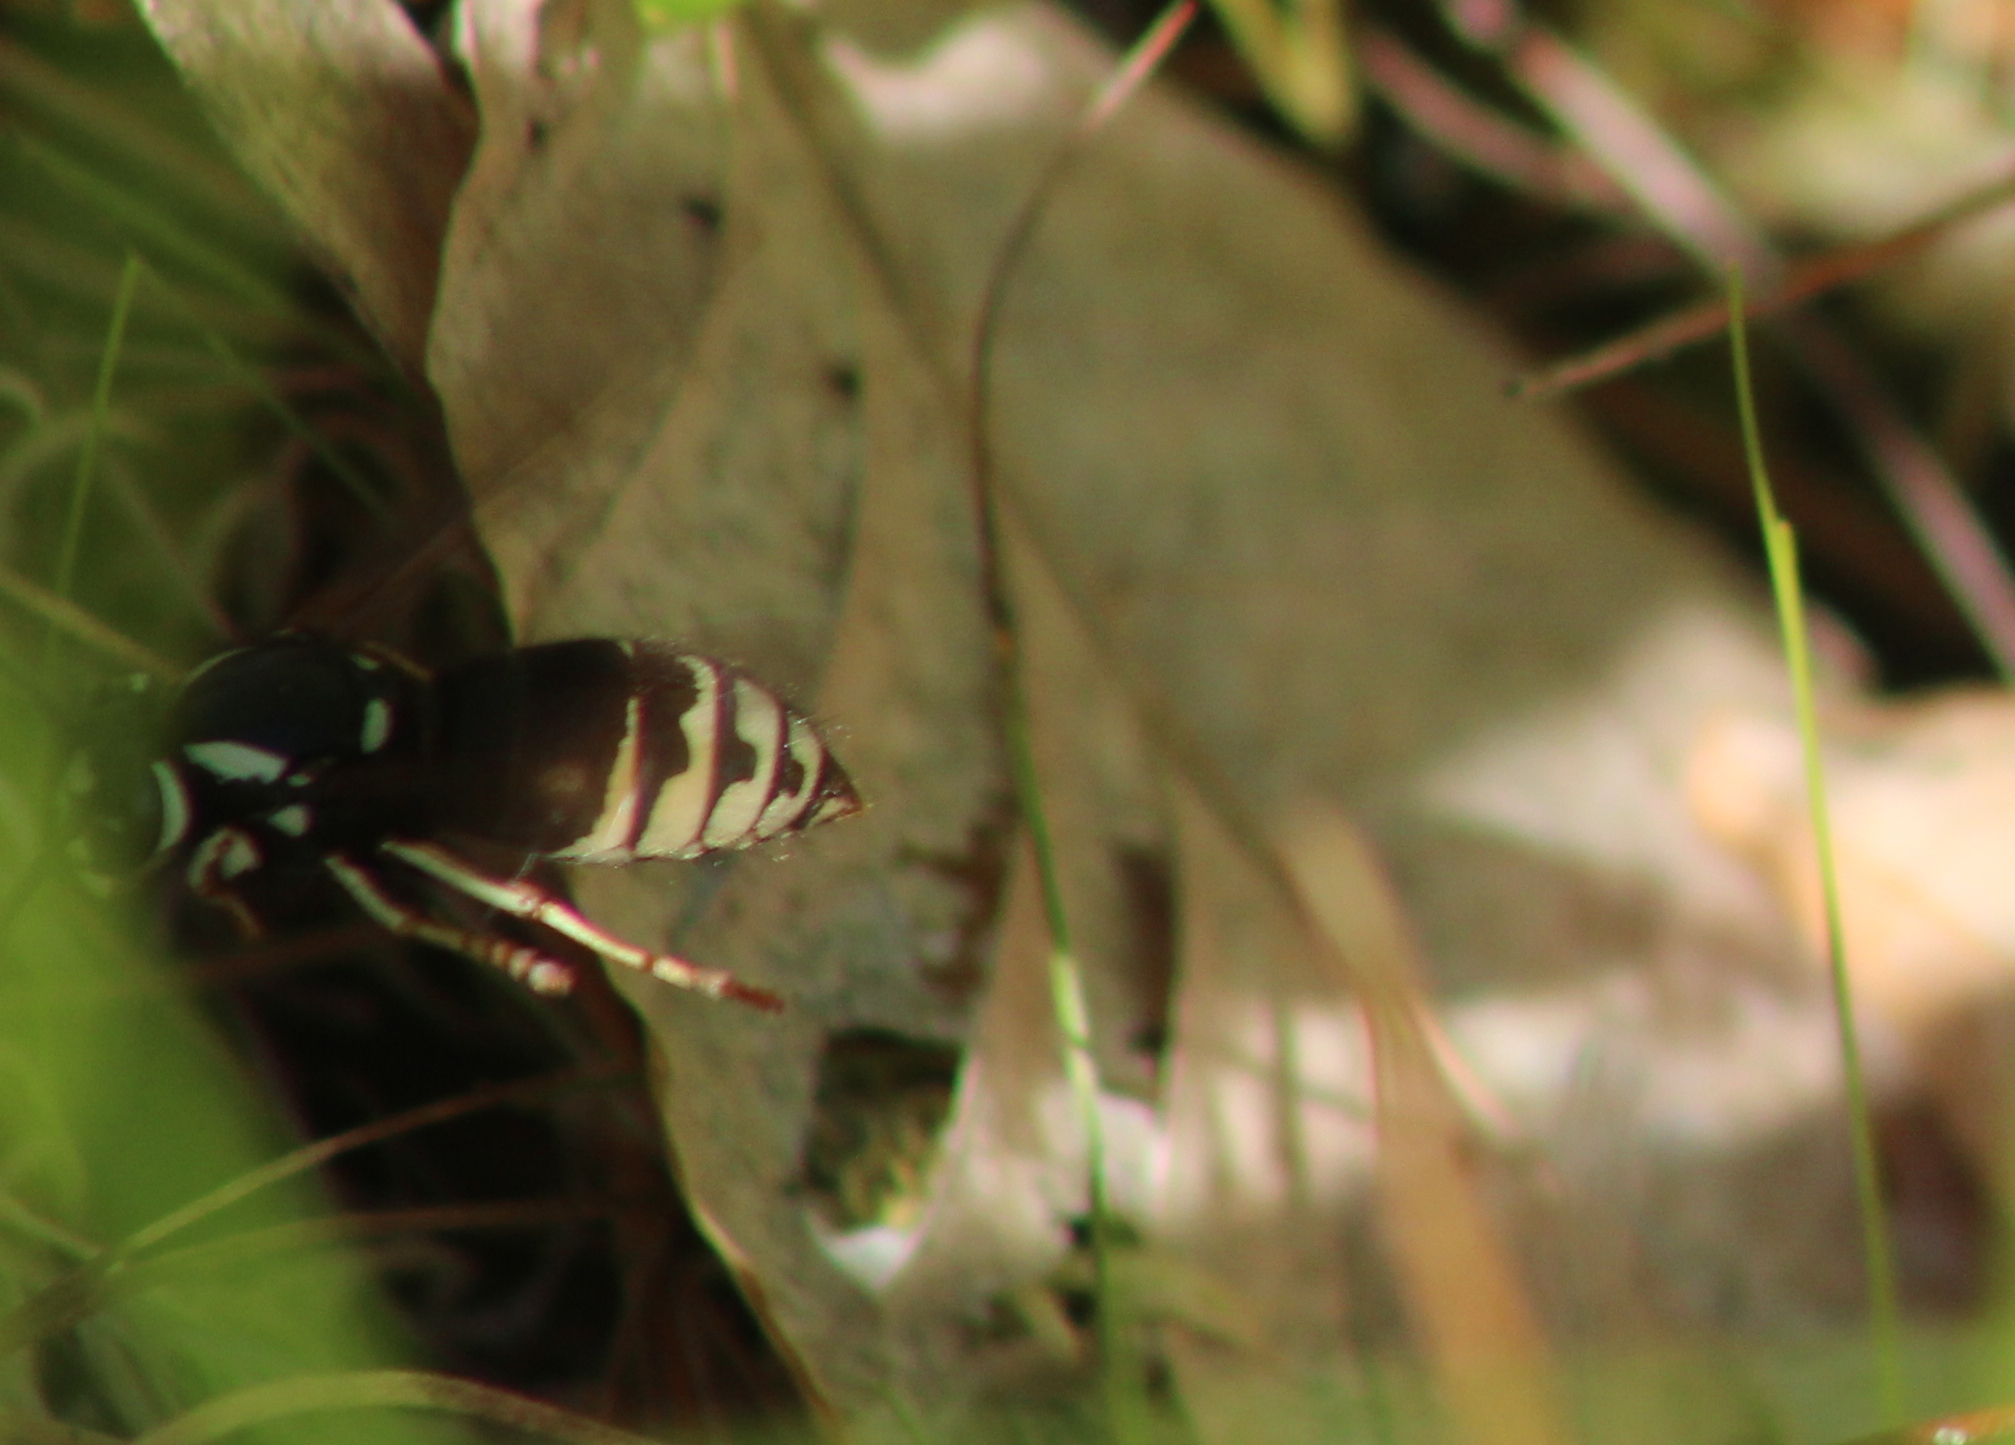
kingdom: Animalia
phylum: Arthropoda
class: Insecta
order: Hymenoptera
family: Vespidae
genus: Vespula
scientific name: Vespula consobrina
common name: Blackjacket
